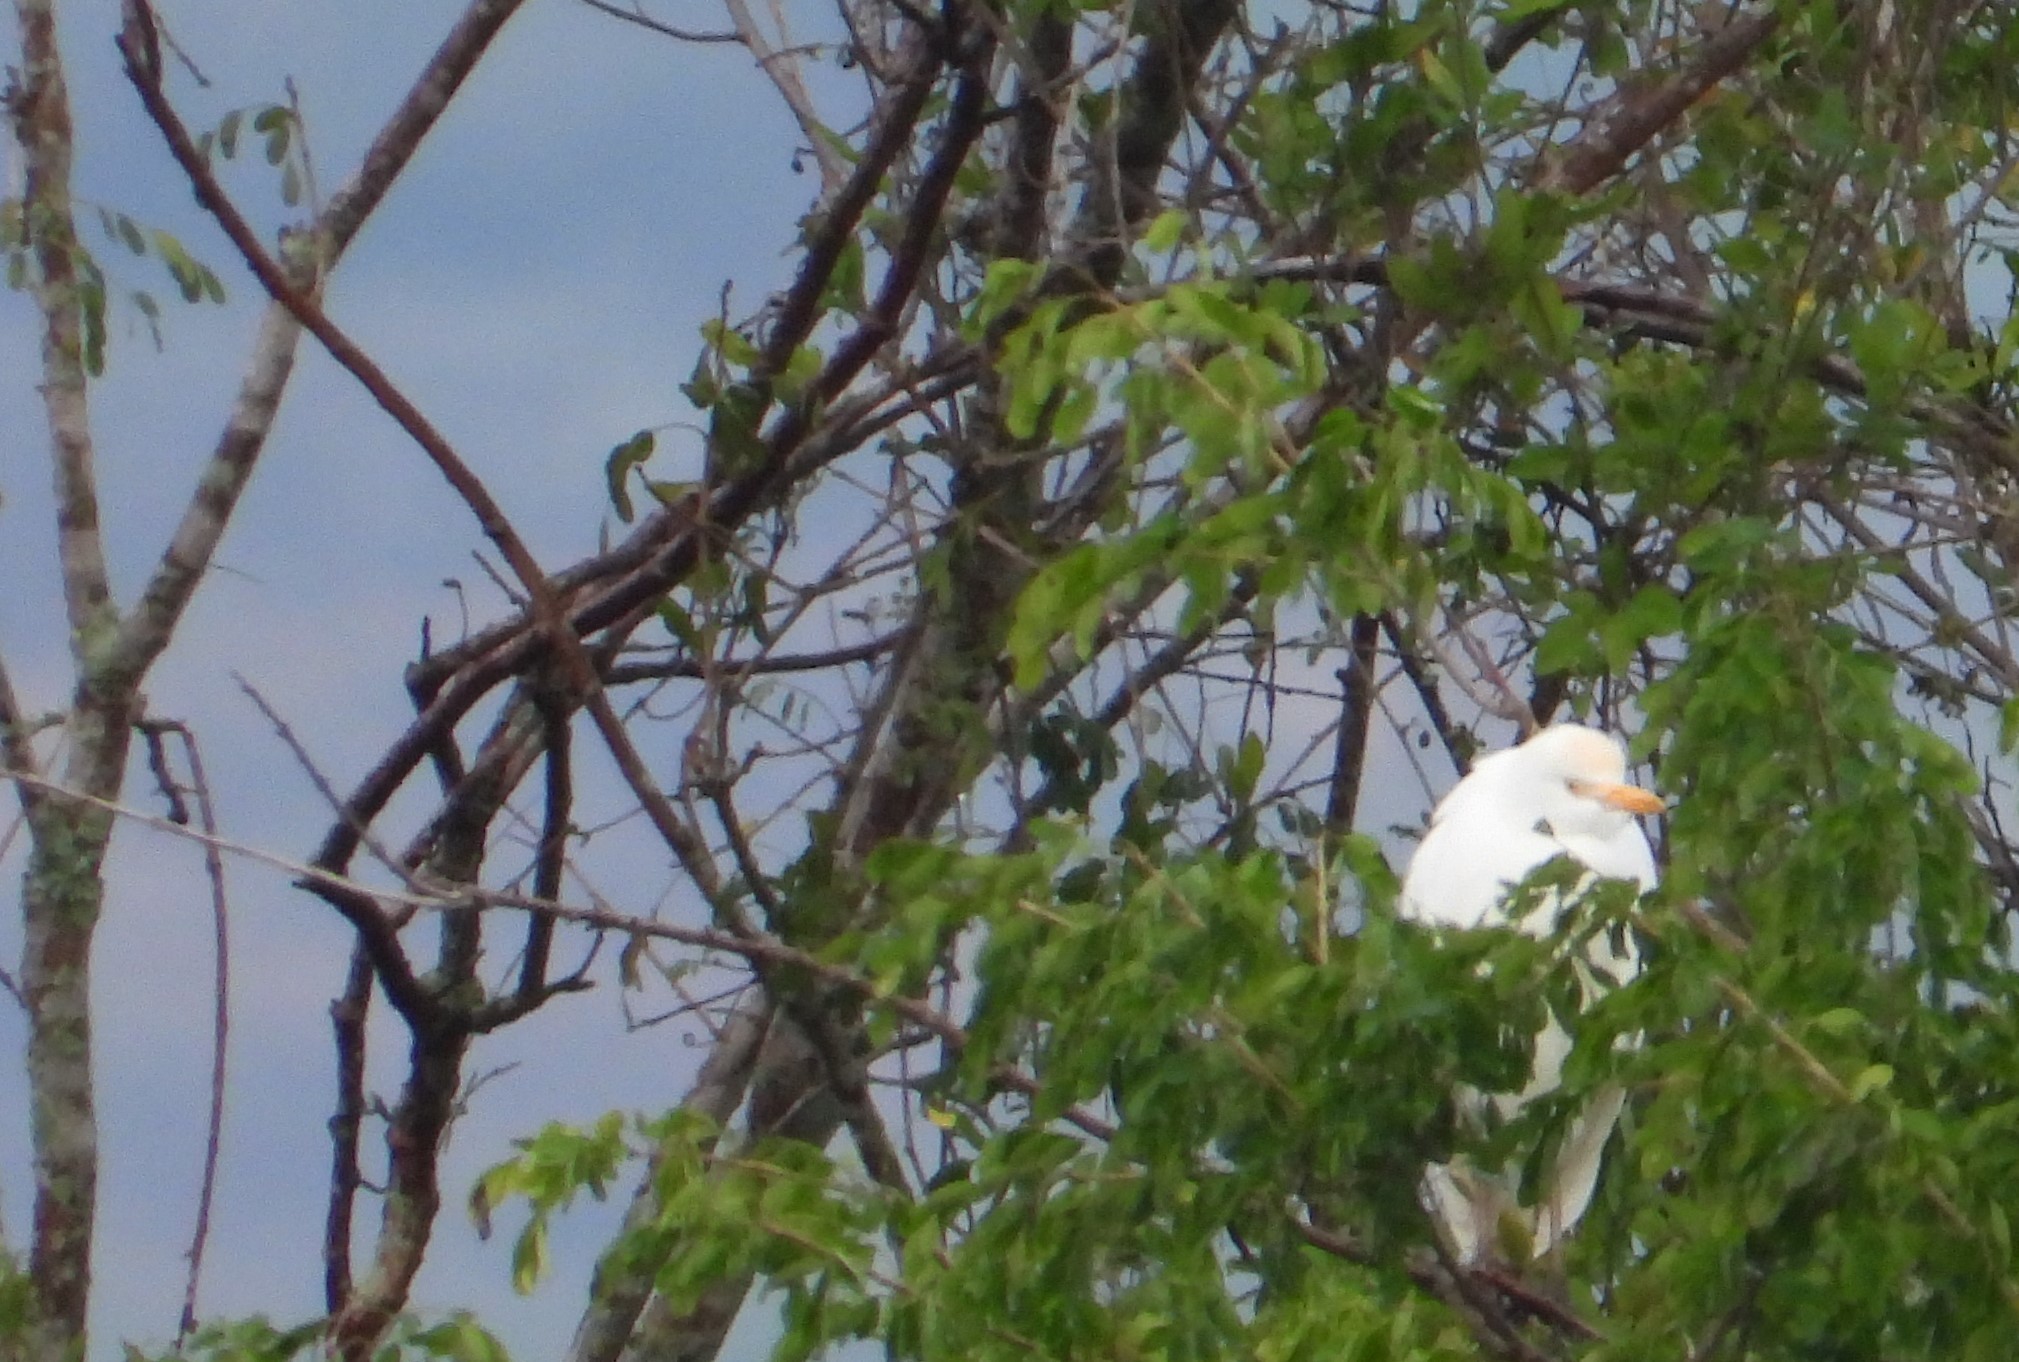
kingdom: Animalia
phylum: Chordata
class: Aves
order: Pelecaniformes
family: Ardeidae
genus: Bubulcus
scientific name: Bubulcus ibis
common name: Cattle egret
